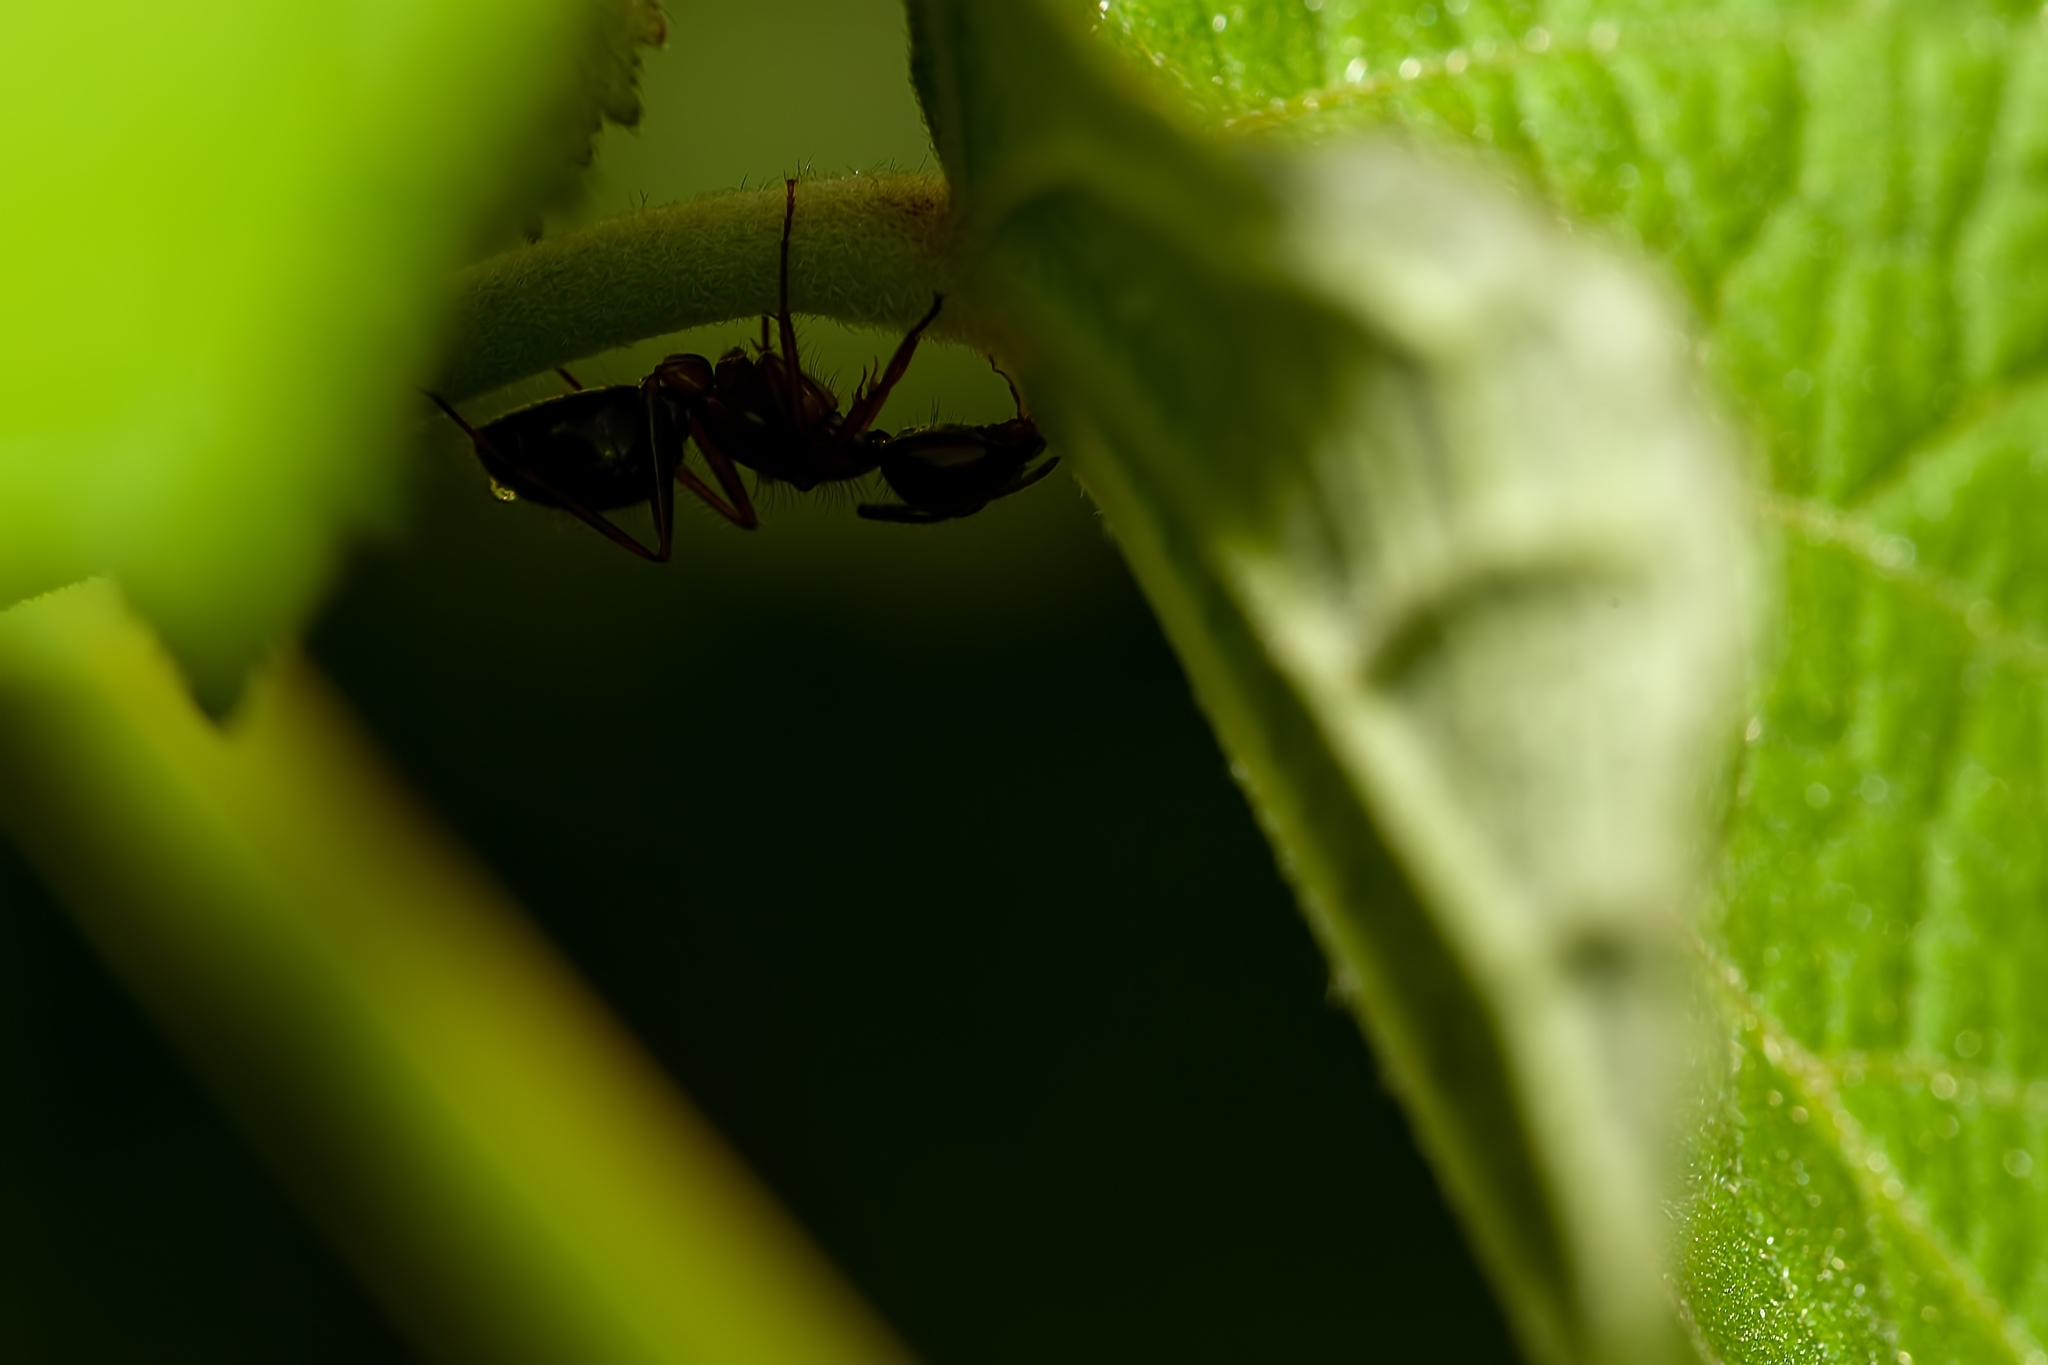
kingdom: Animalia
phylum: Arthropoda
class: Insecta
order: Hymenoptera
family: Formicidae
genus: Camponotus
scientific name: Camponotus floridanus
